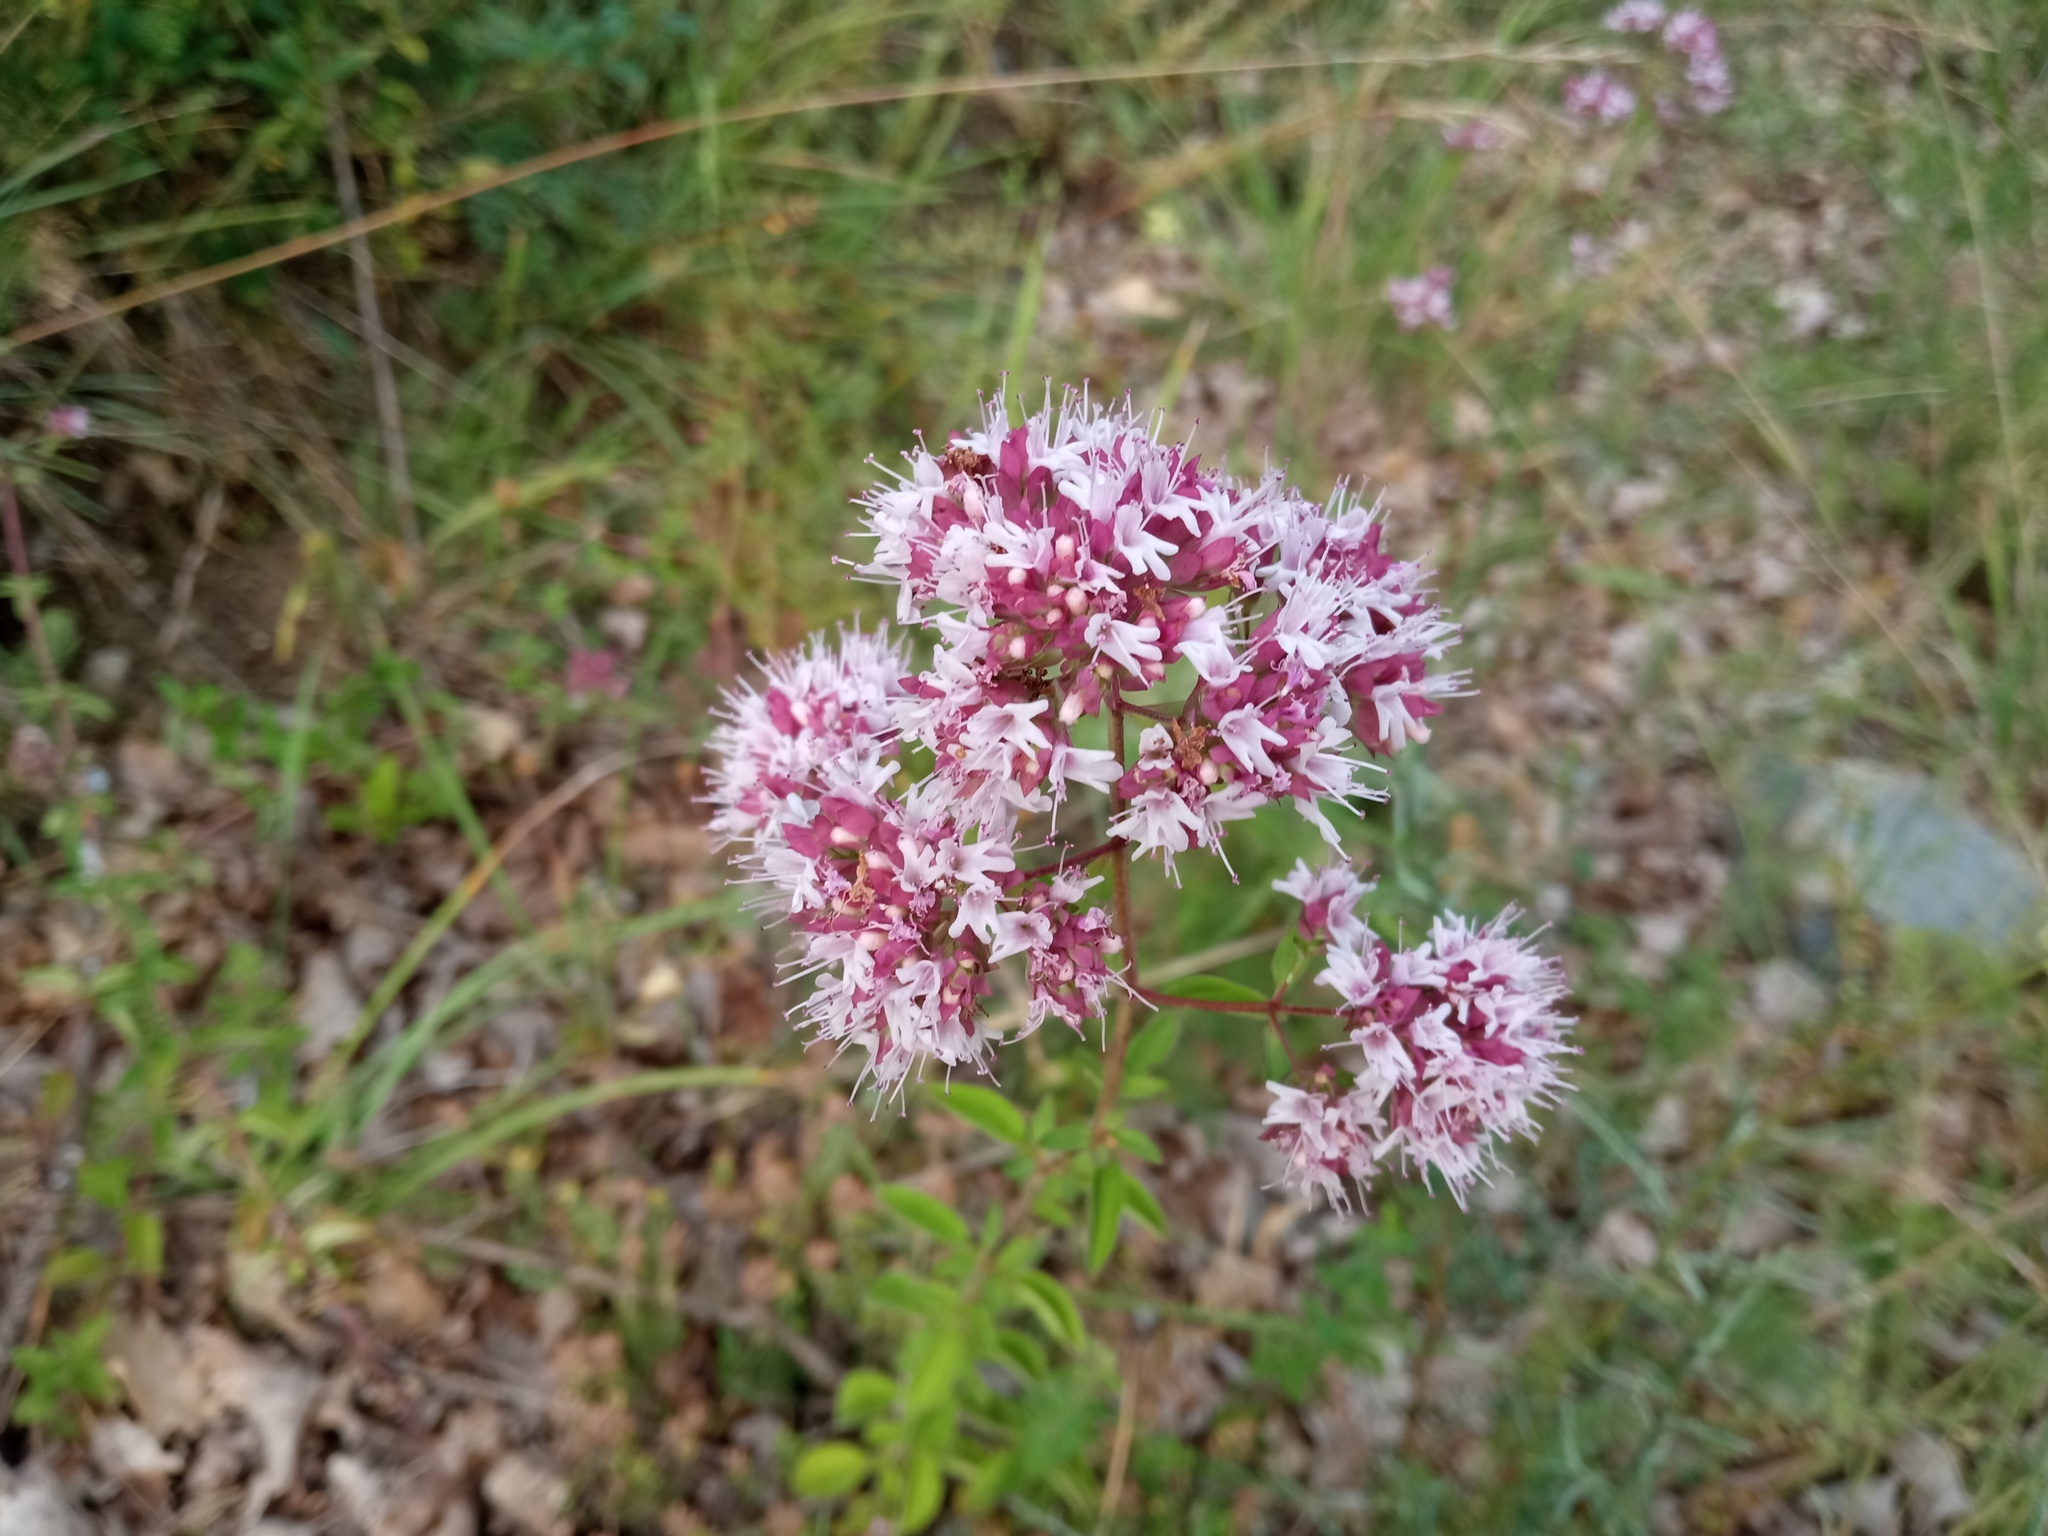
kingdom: Plantae
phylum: Tracheophyta
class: Magnoliopsida
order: Lamiales
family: Lamiaceae
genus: Origanum
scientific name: Origanum vulgare
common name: Wild marjoram
